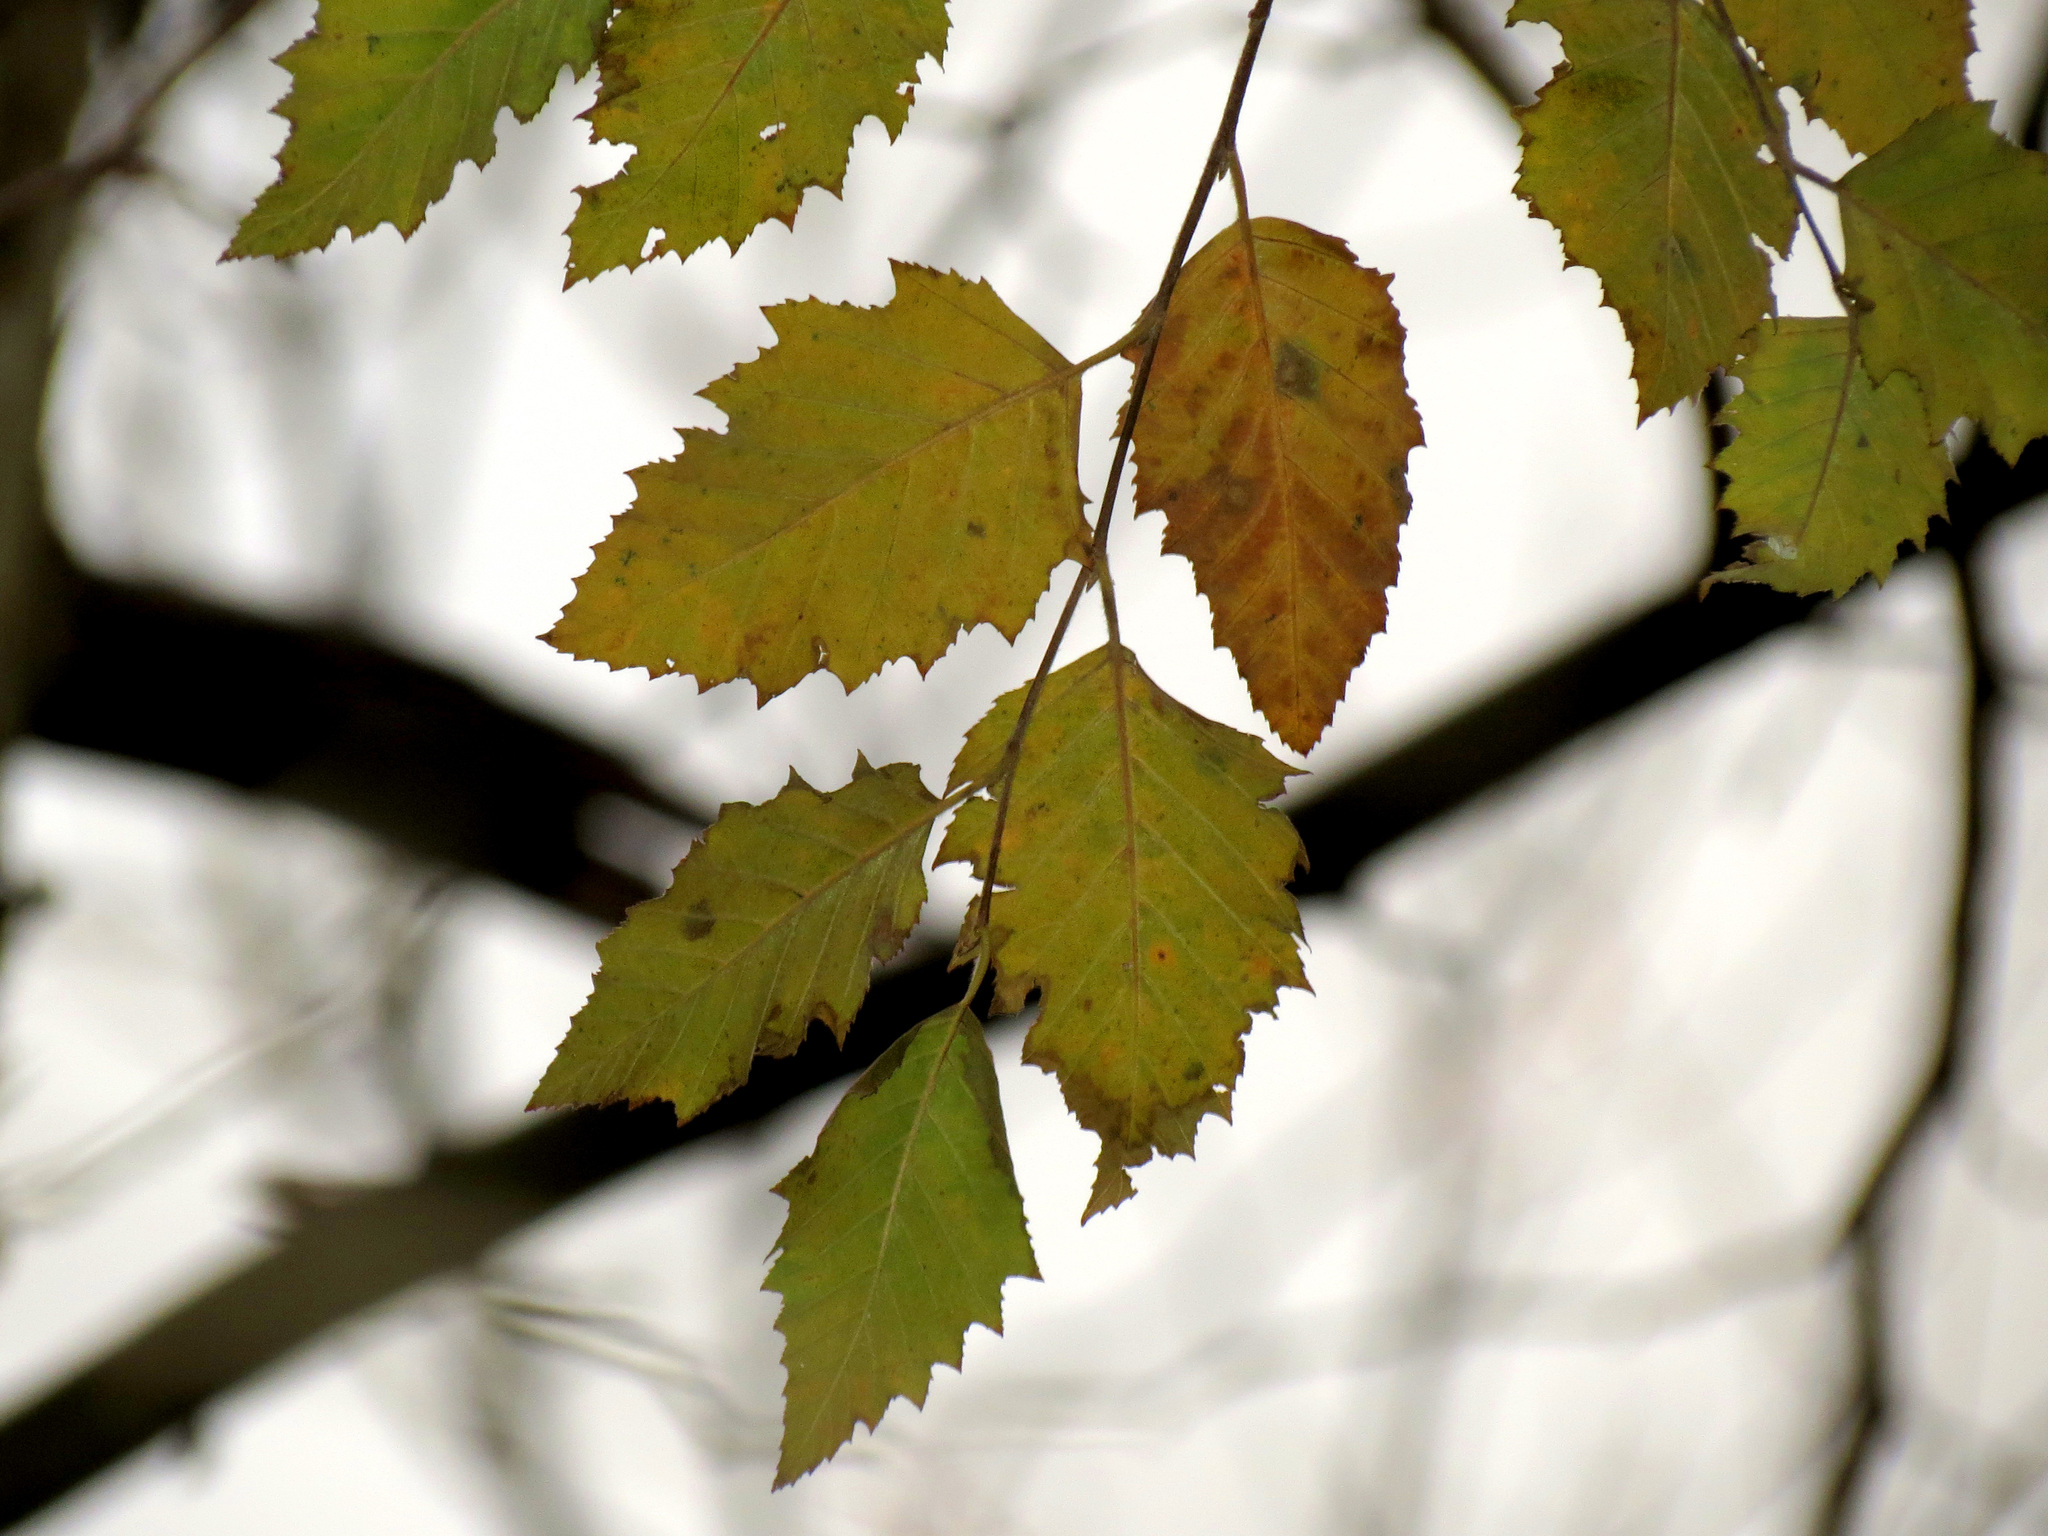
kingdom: Plantae
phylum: Tracheophyta
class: Magnoliopsida
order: Fagales
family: Betulaceae
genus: Betula
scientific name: Betula nigra
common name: Black birch
